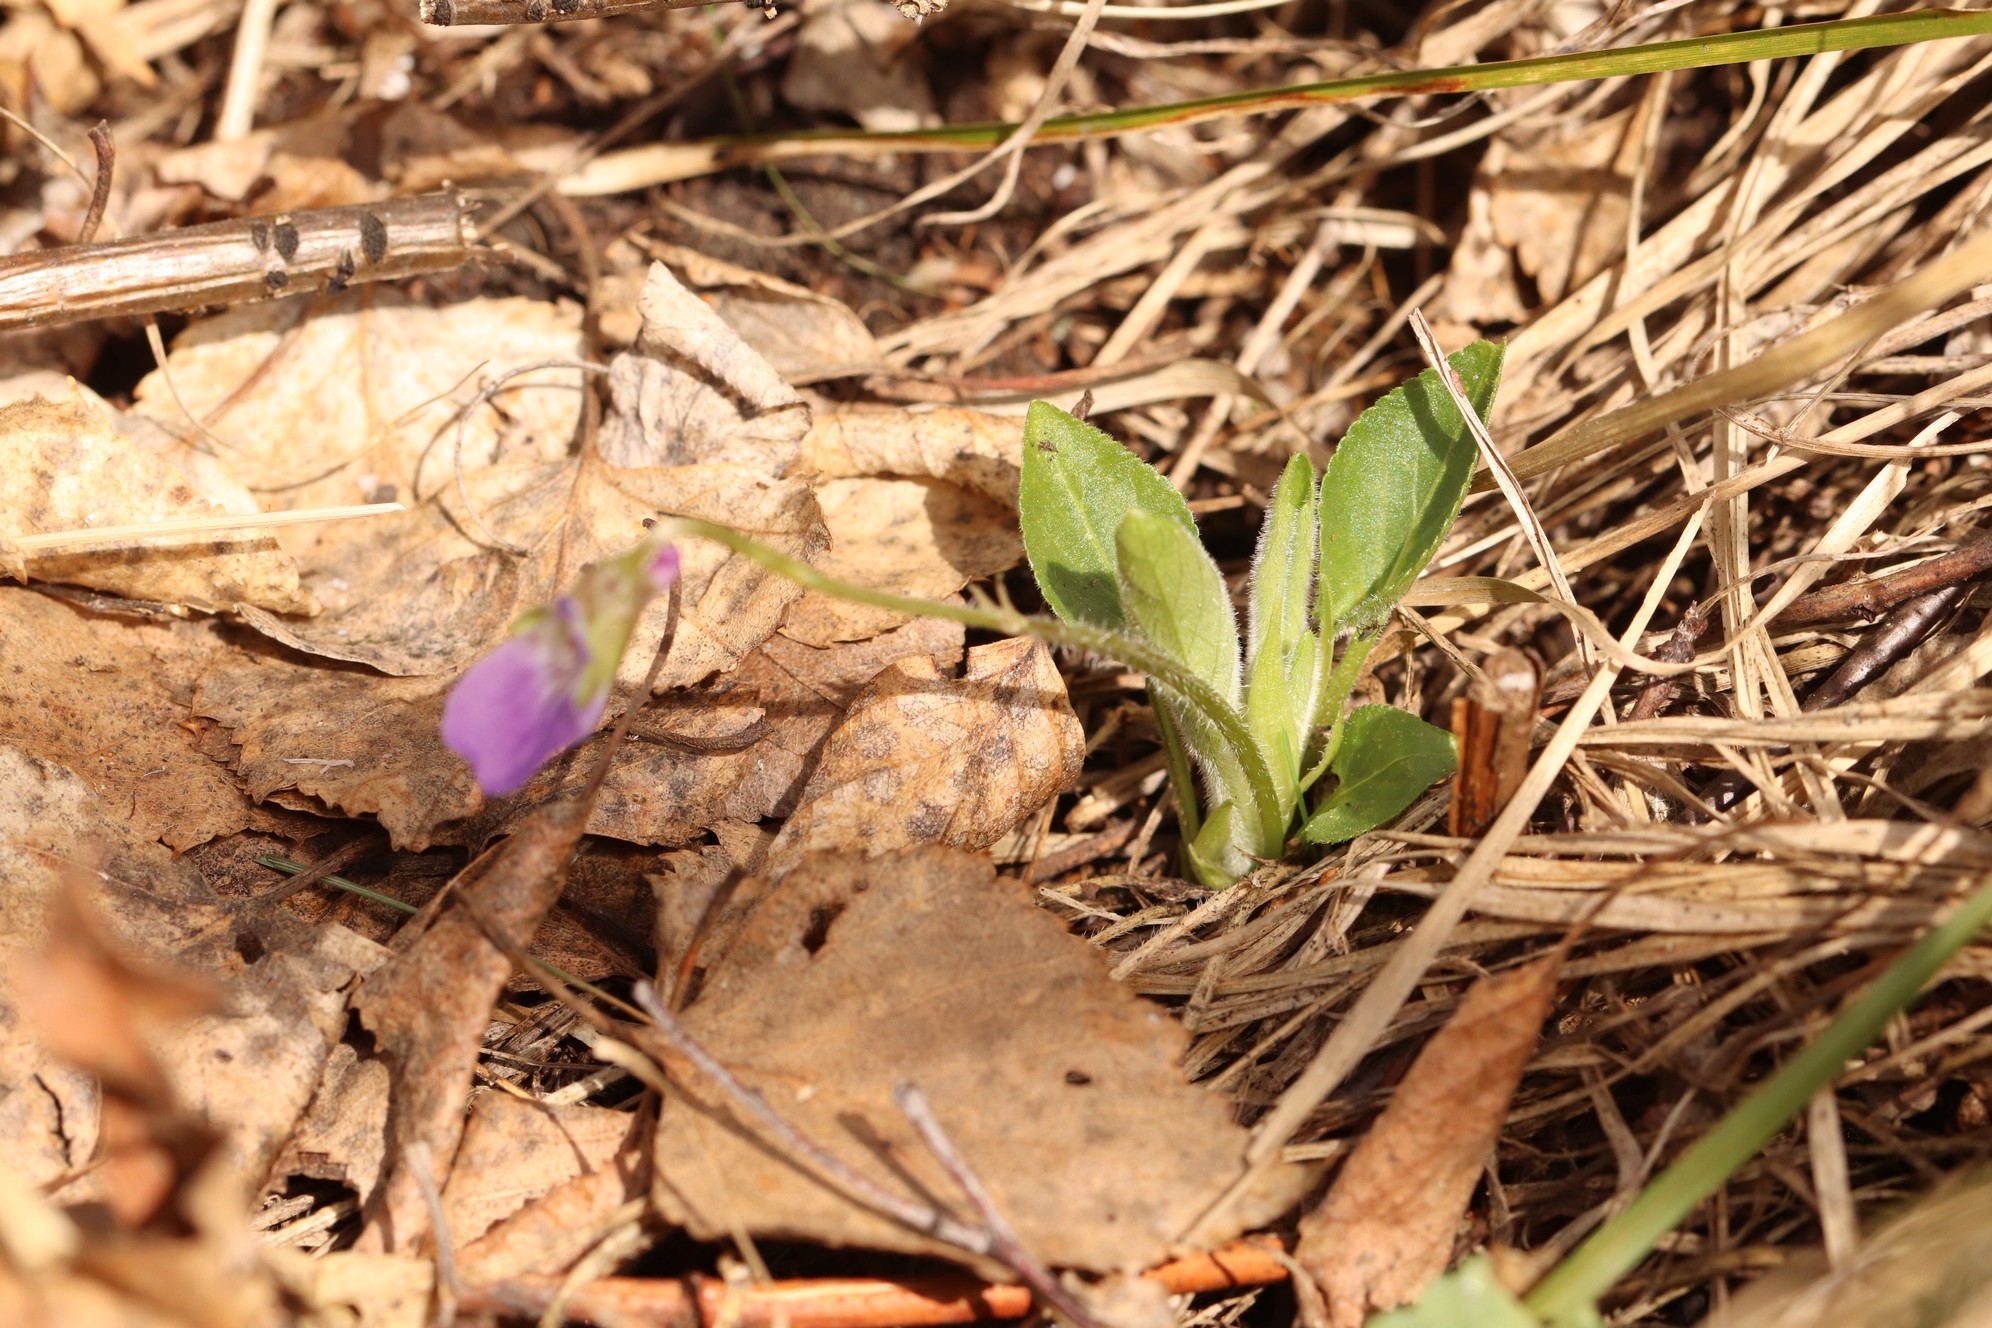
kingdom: Plantae
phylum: Tracheophyta
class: Magnoliopsida
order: Malpighiales
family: Violaceae
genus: Viola
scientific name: Viola hirta
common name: Hairy violet
